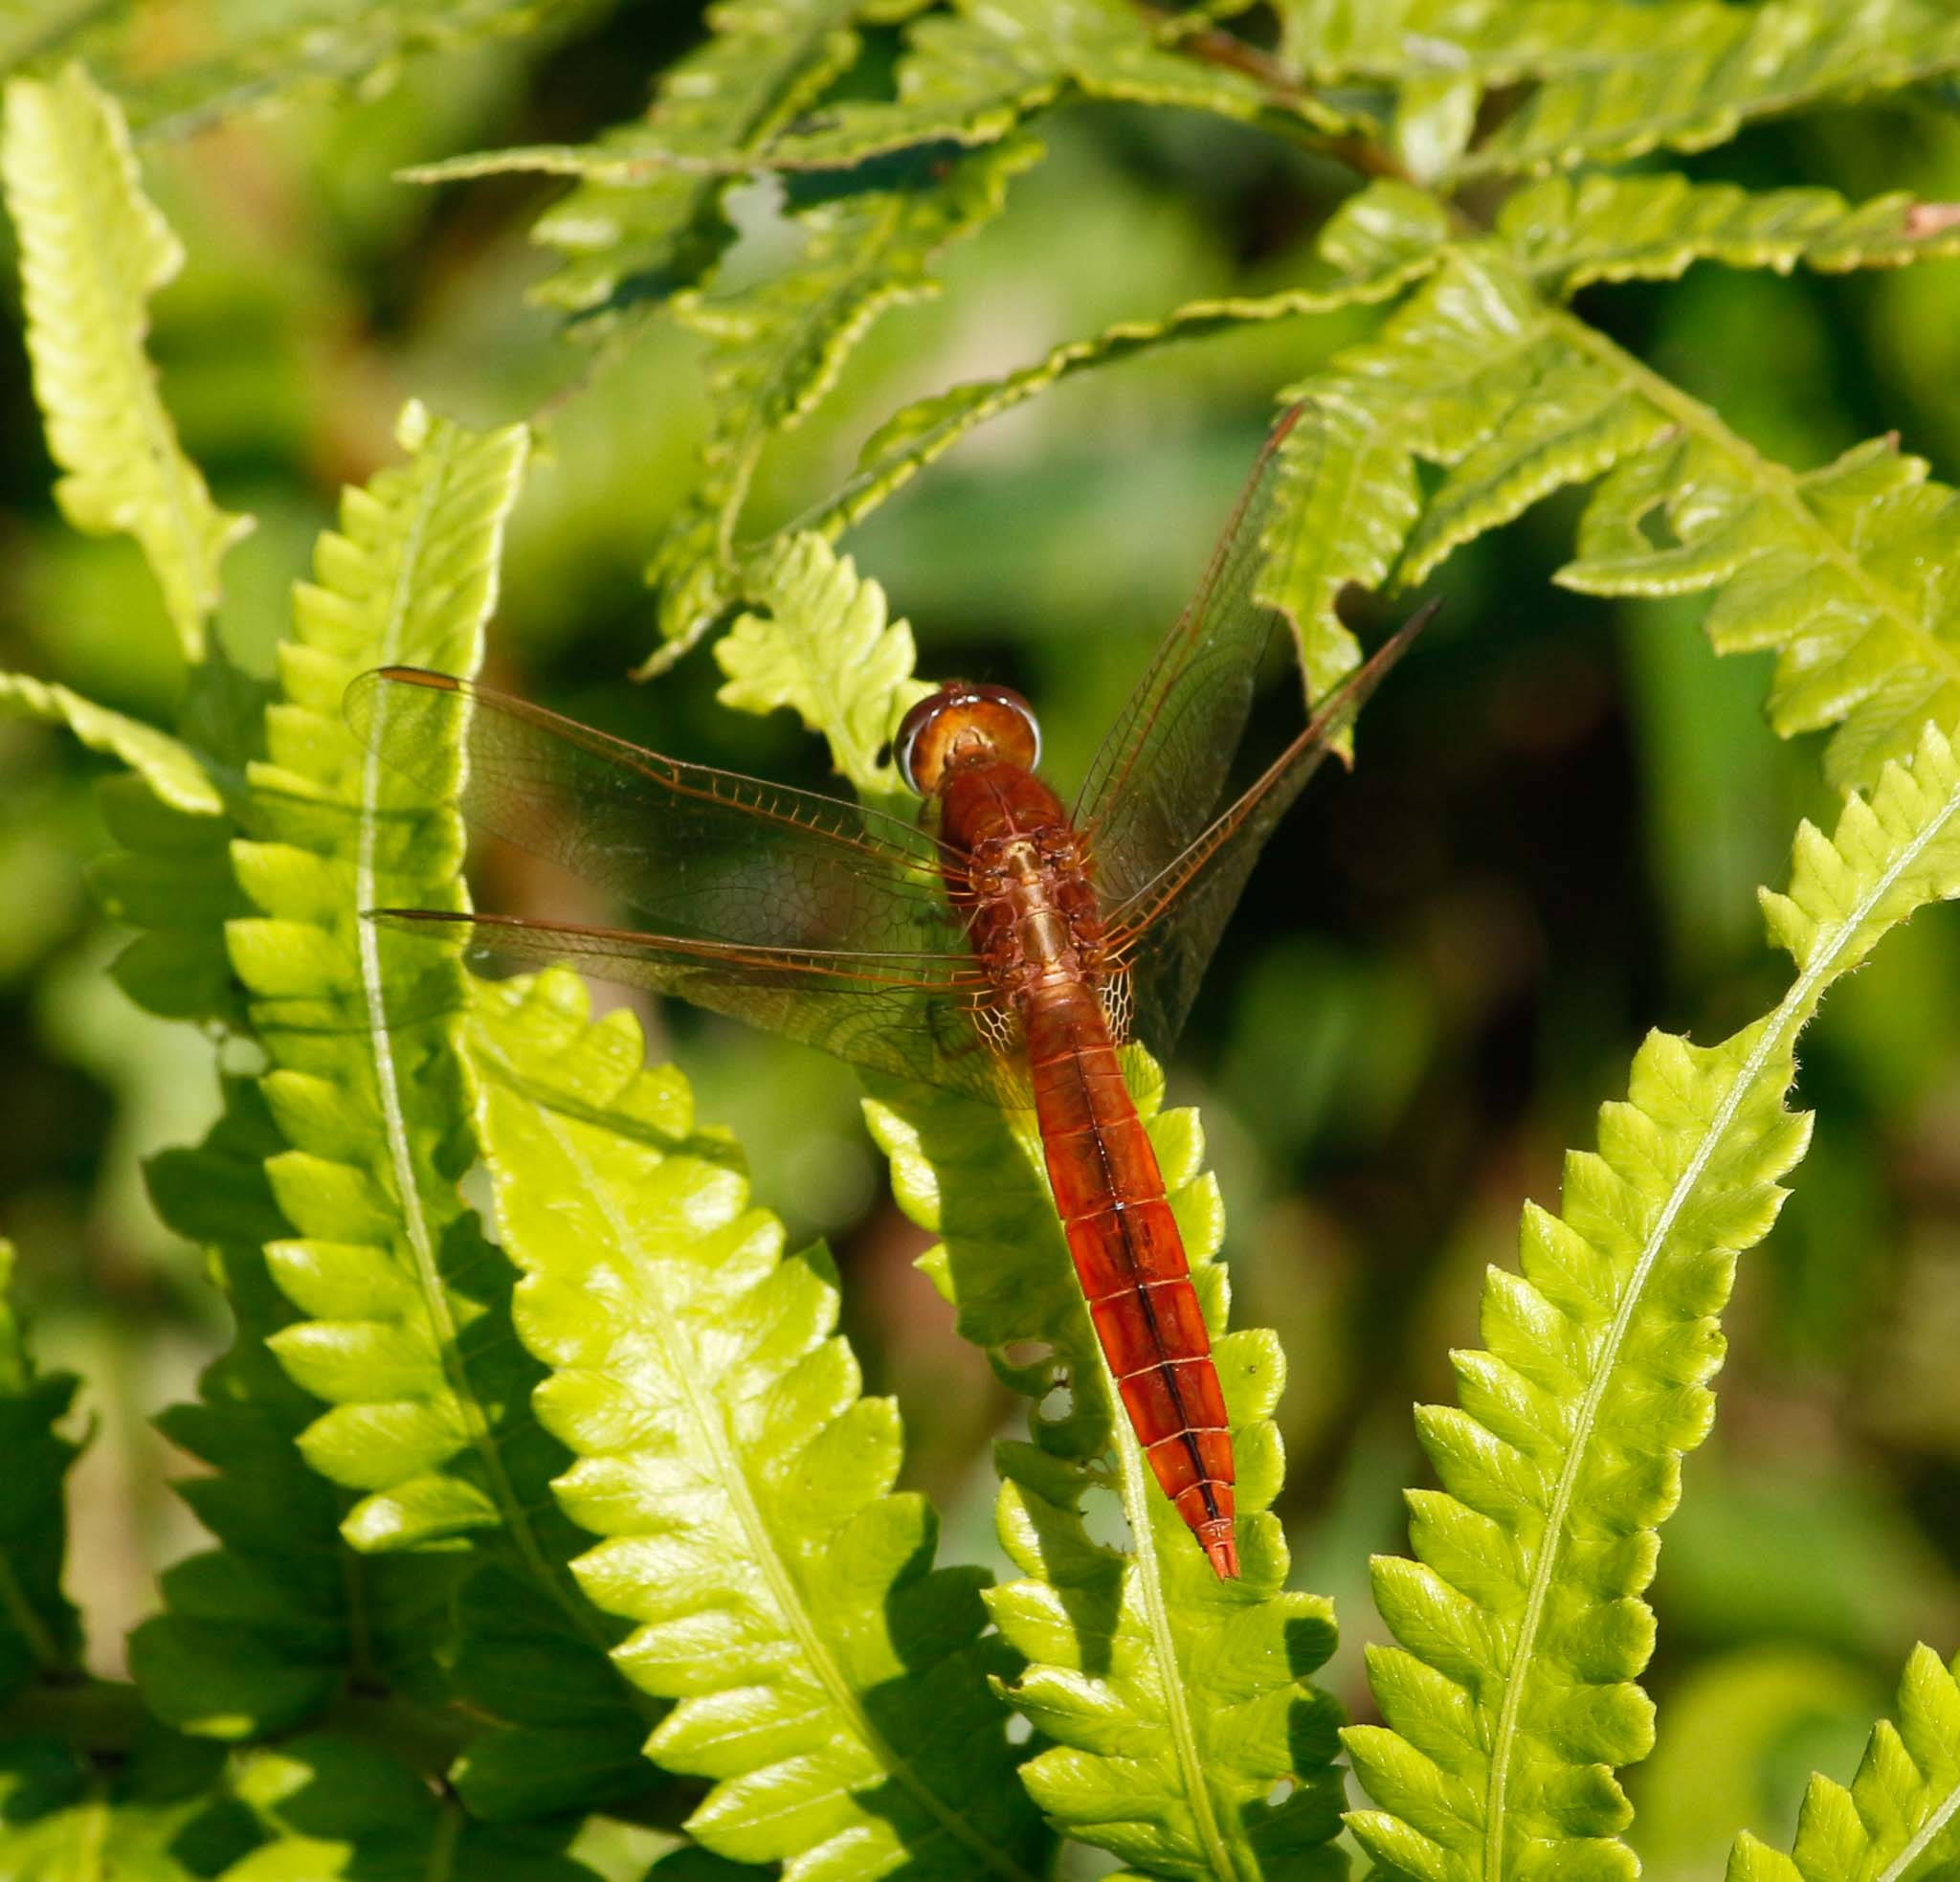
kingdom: Animalia
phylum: Arthropoda
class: Insecta
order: Odonata
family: Libellulidae
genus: Crocothemis
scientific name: Crocothemis servilia
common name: Scarlet skimmer
